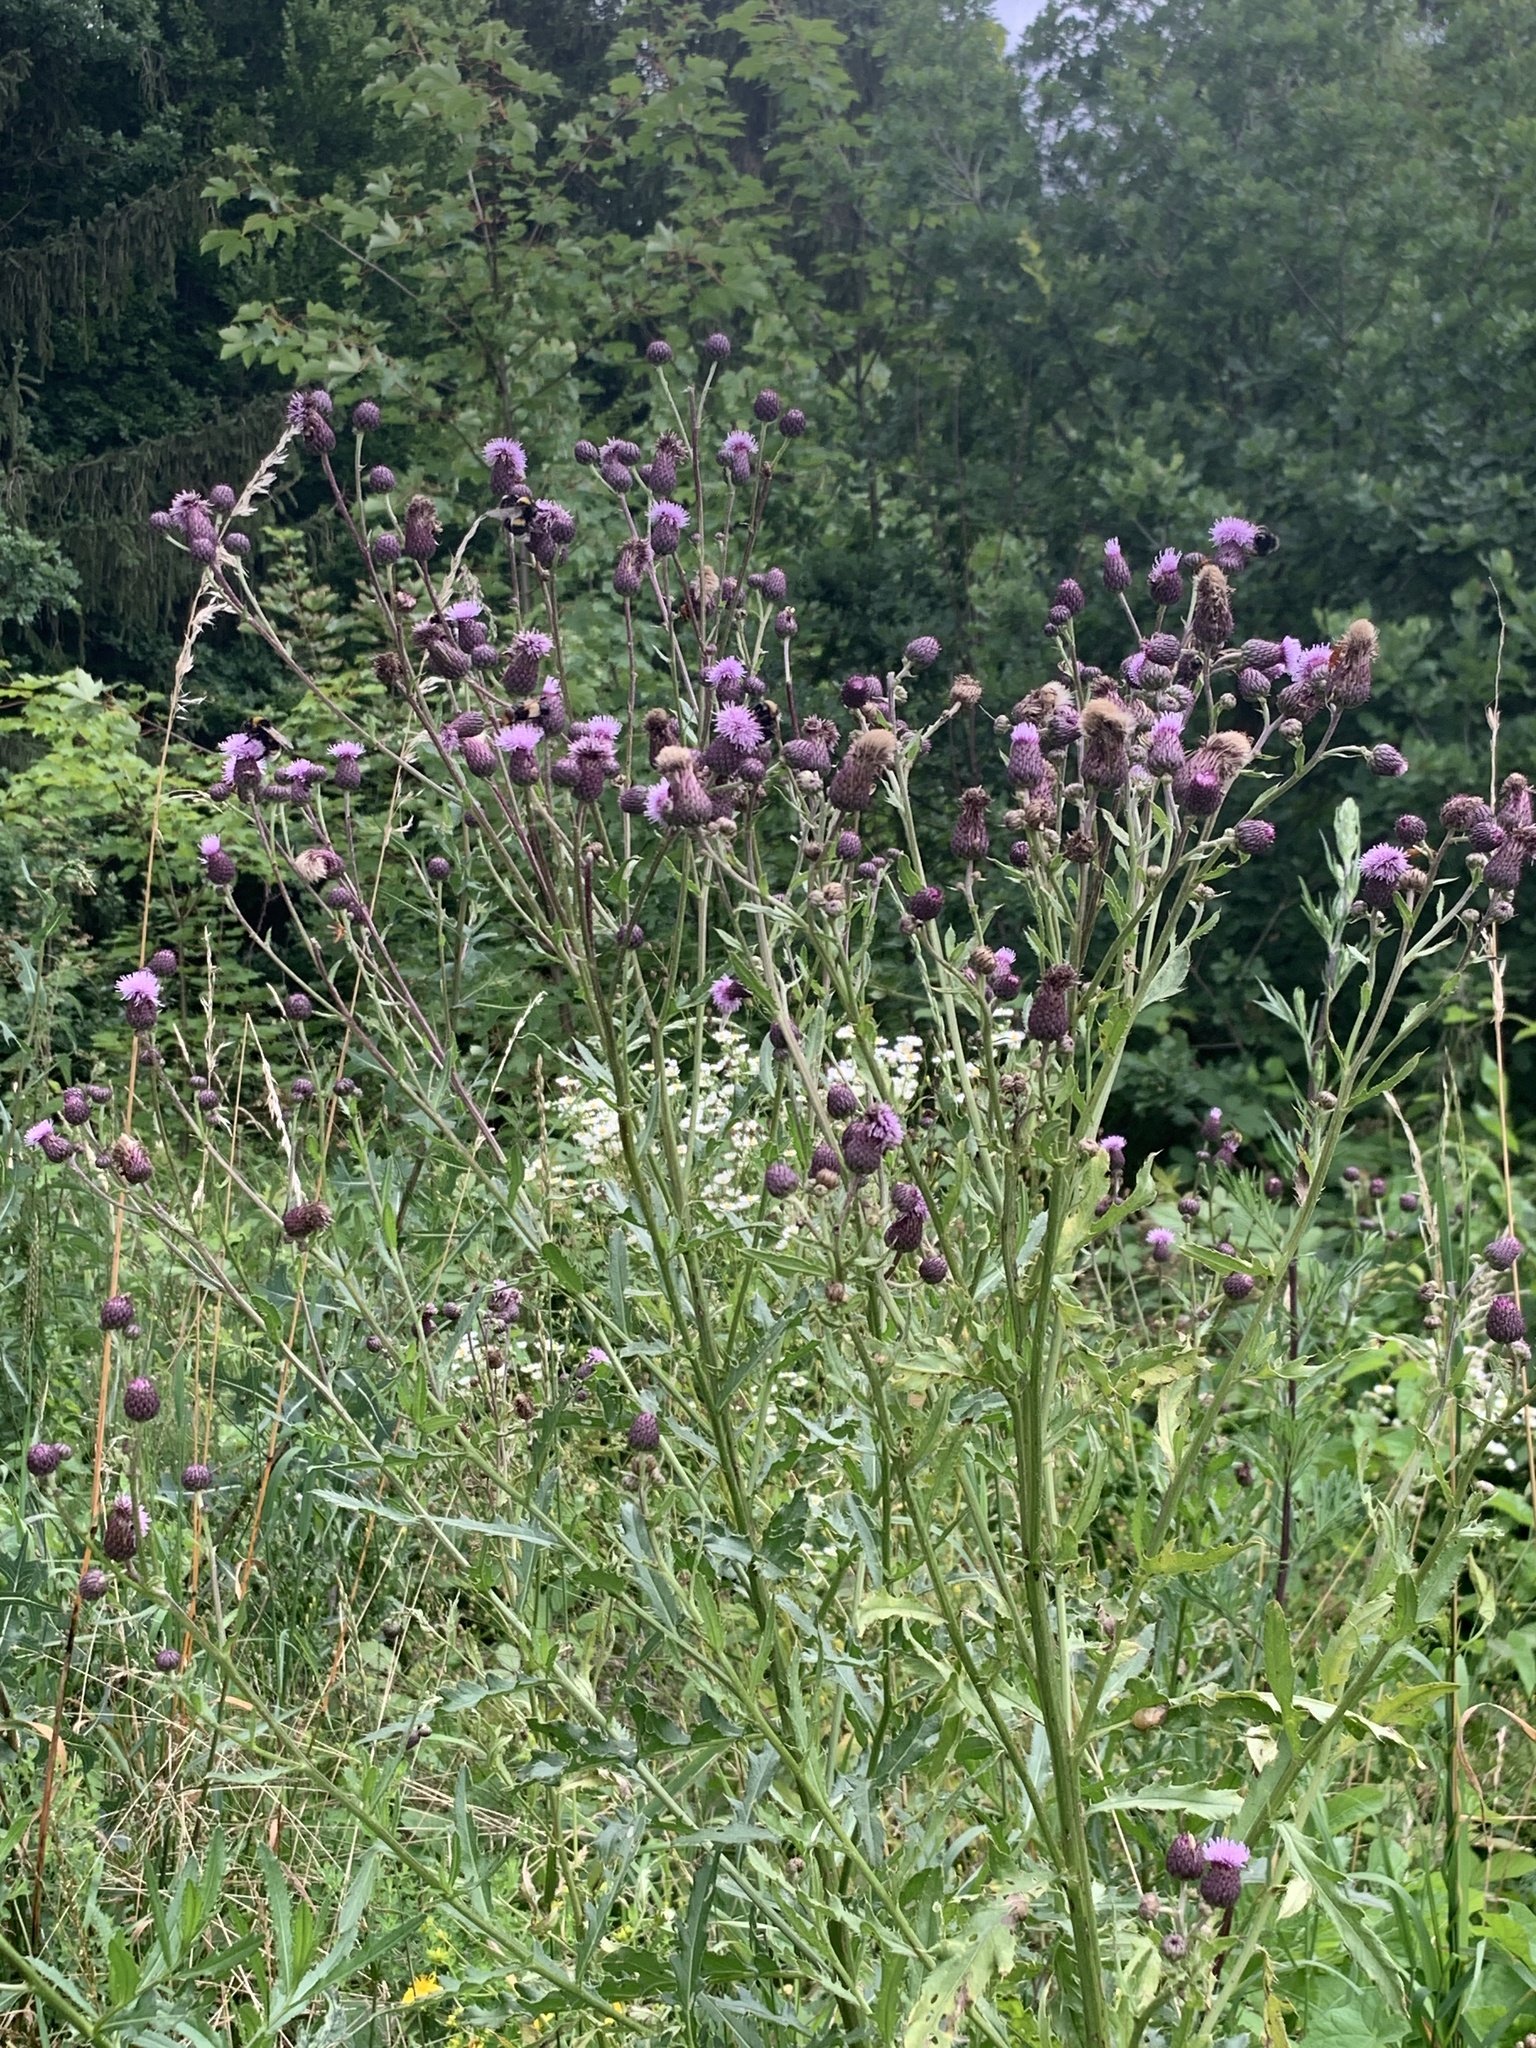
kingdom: Plantae
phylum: Tracheophyta
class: Magnoliopsida
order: Asterales
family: Asteraceae
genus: Cirsium
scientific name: Cirsium arvense
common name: Creeping thistle
